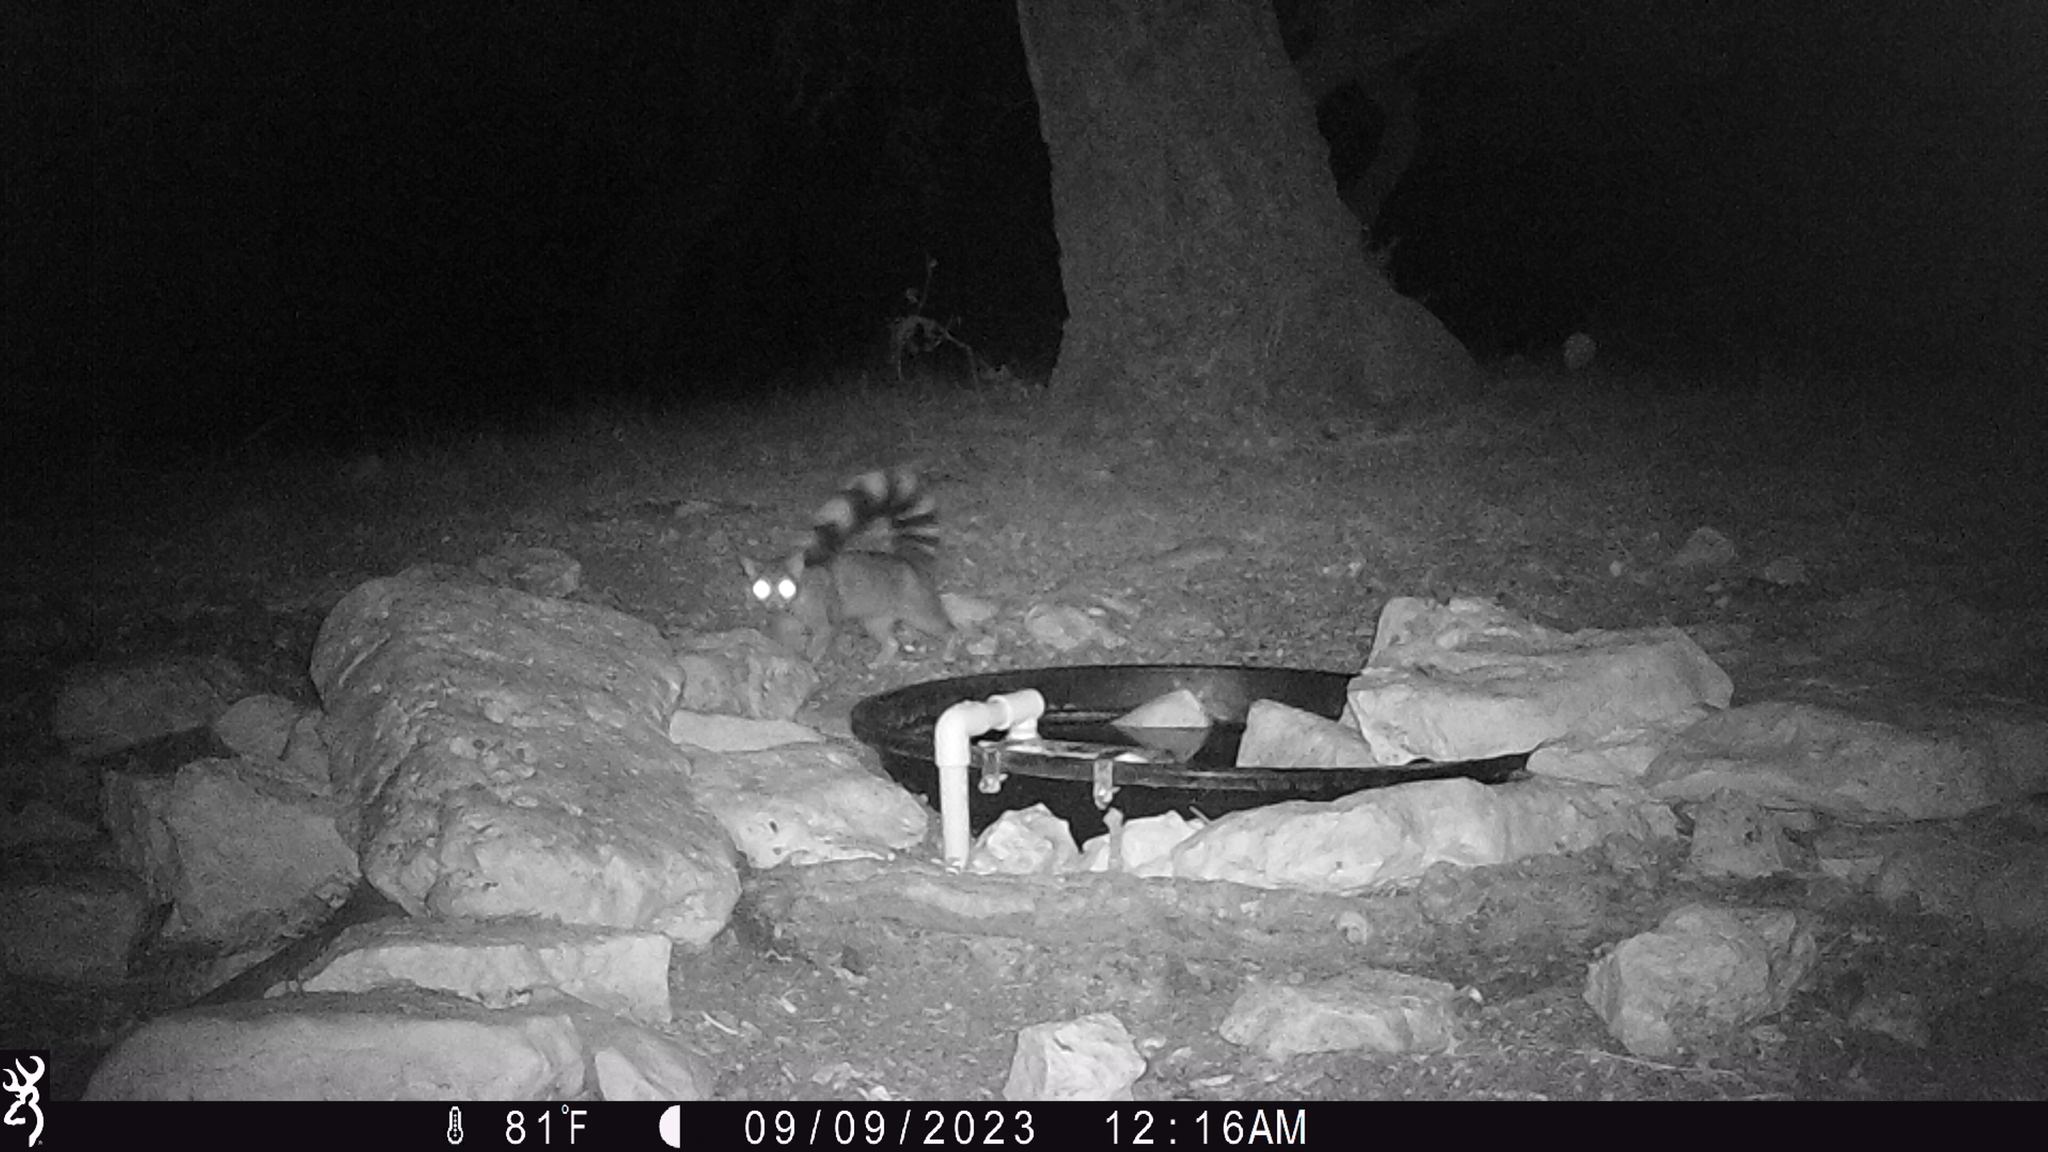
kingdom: Animalia
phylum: Chordata
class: Mammalia
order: Carnivora
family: Procyonidae
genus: Bassariscus
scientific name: Bassariscus astutus
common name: Ringtail
